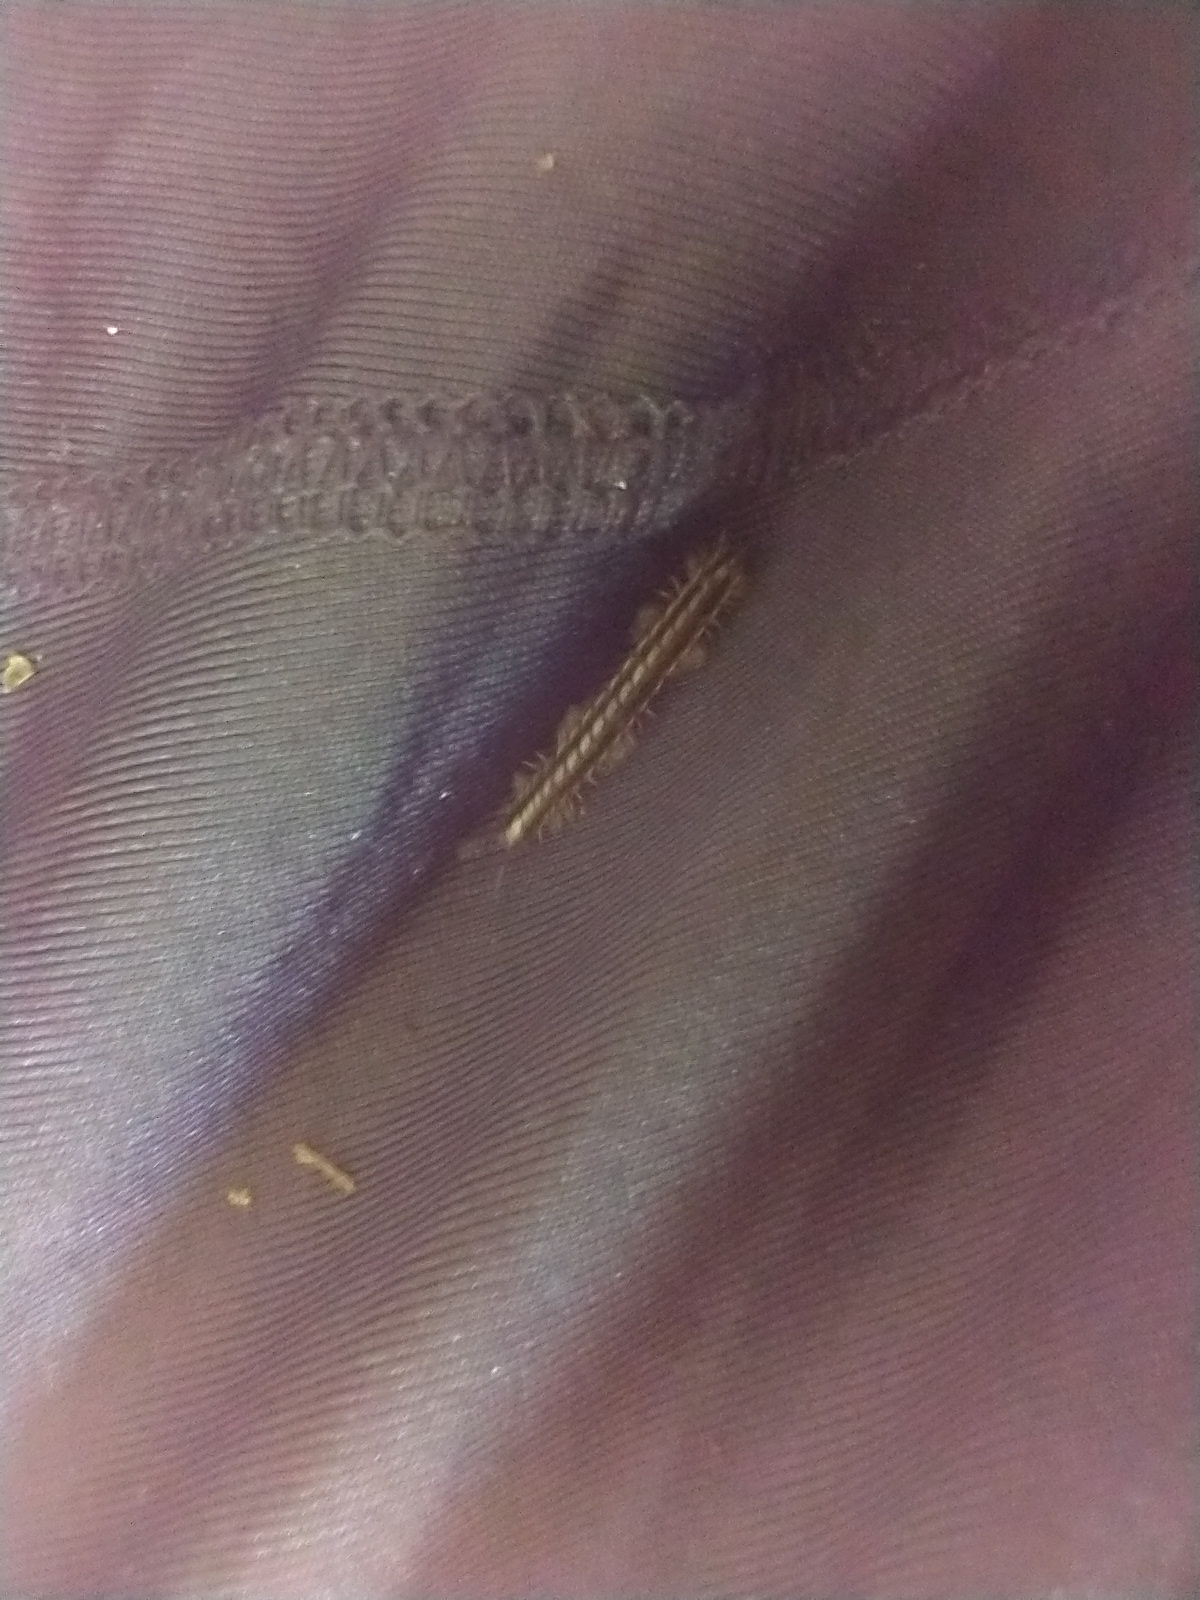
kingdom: Animalia
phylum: Arthropoda
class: Diplopoda
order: Polydesmida
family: Paradoxosomatidae
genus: Oxidus
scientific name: Oxidus gracilis
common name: Greenhouse millipede
